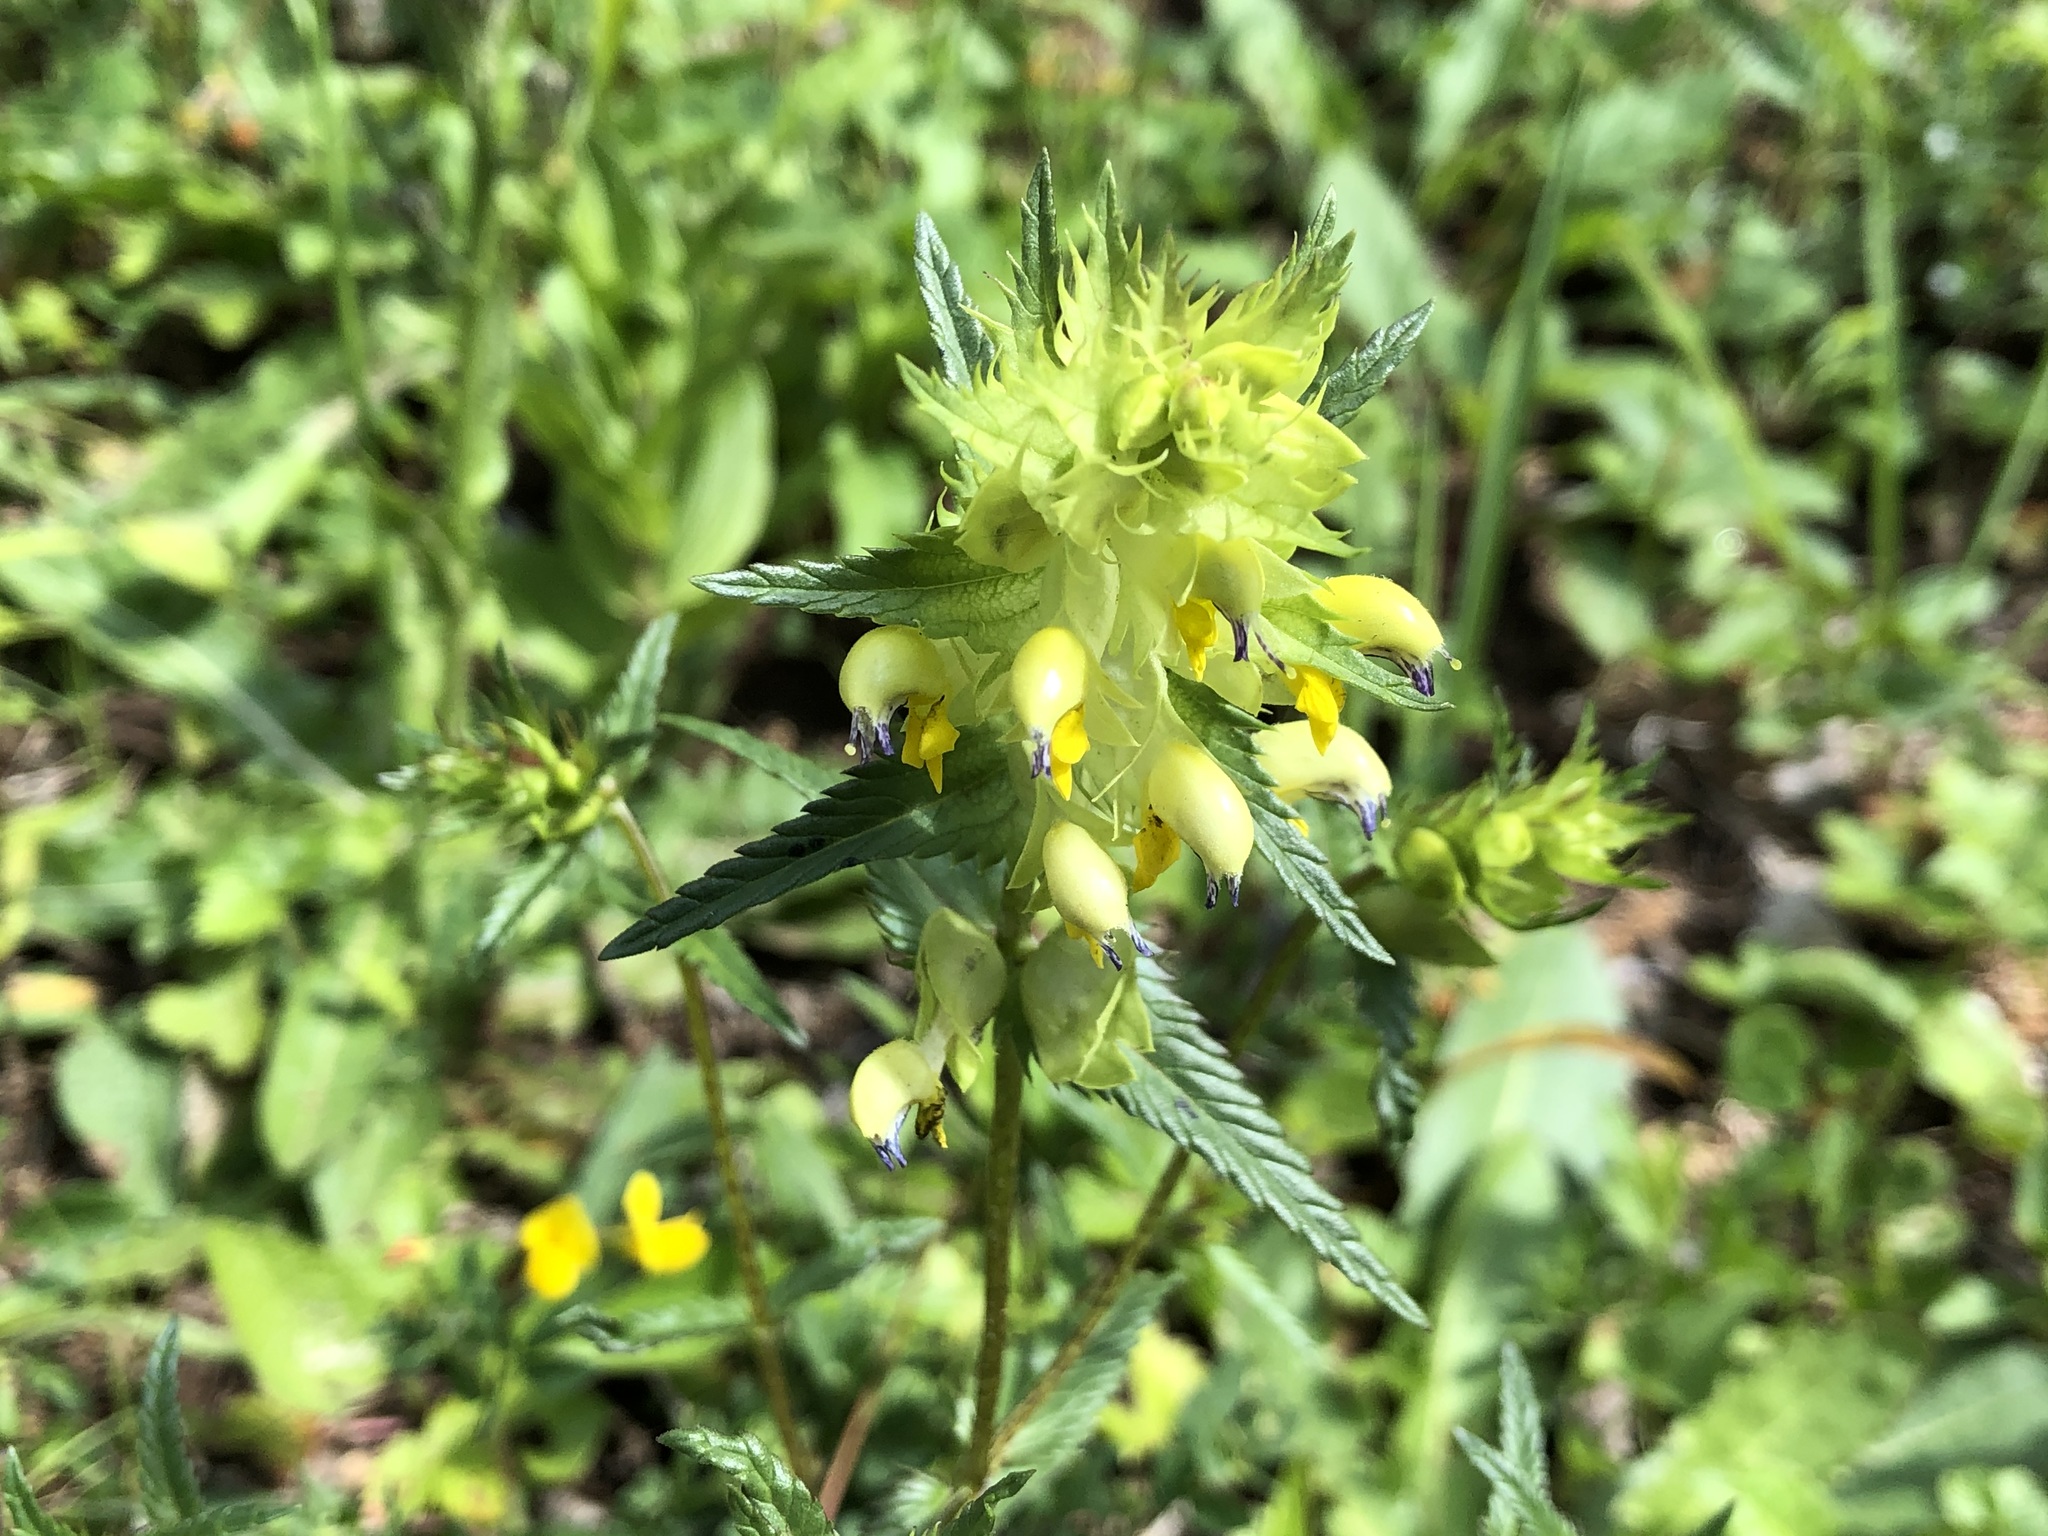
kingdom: Plantae
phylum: Tracheophyta
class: Magnoliopsida
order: Lamiales
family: Orobanchaceae
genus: Rhinanthus
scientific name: Rhinanthus glacialis
